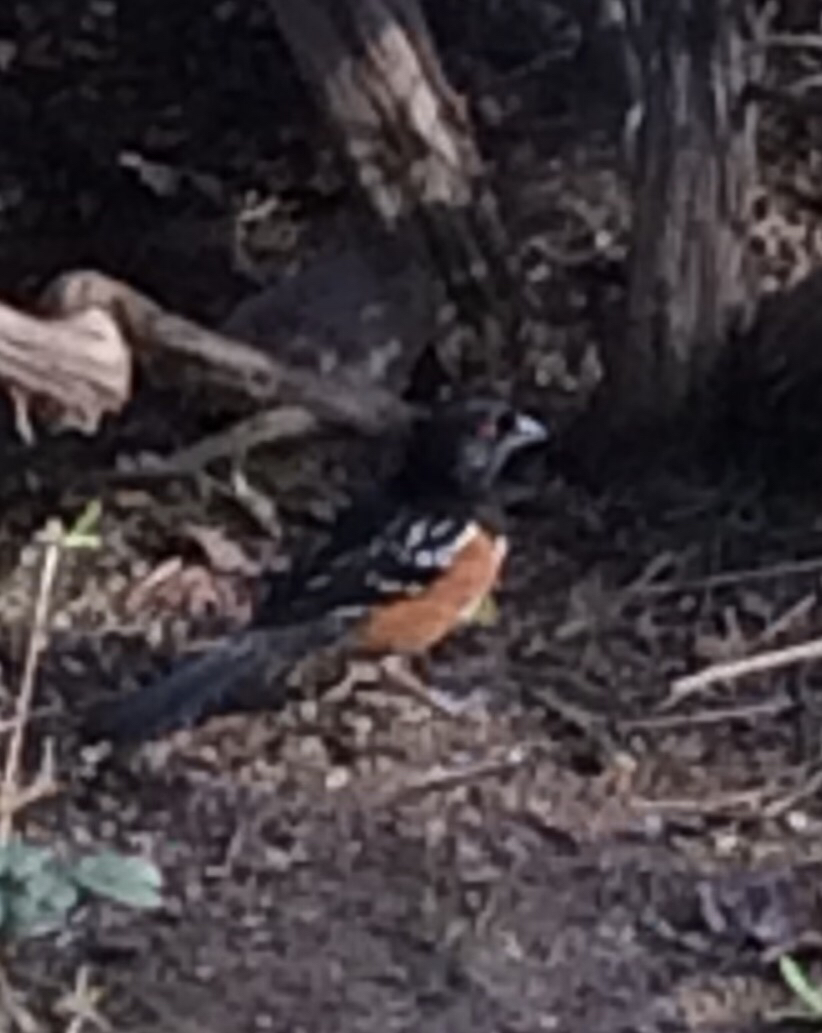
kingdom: Animalia
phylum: Chordata
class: Aves
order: Passeriformes
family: Passerellidae
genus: Pipilo
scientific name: Pipilo maculatus
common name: Spotted towhee
